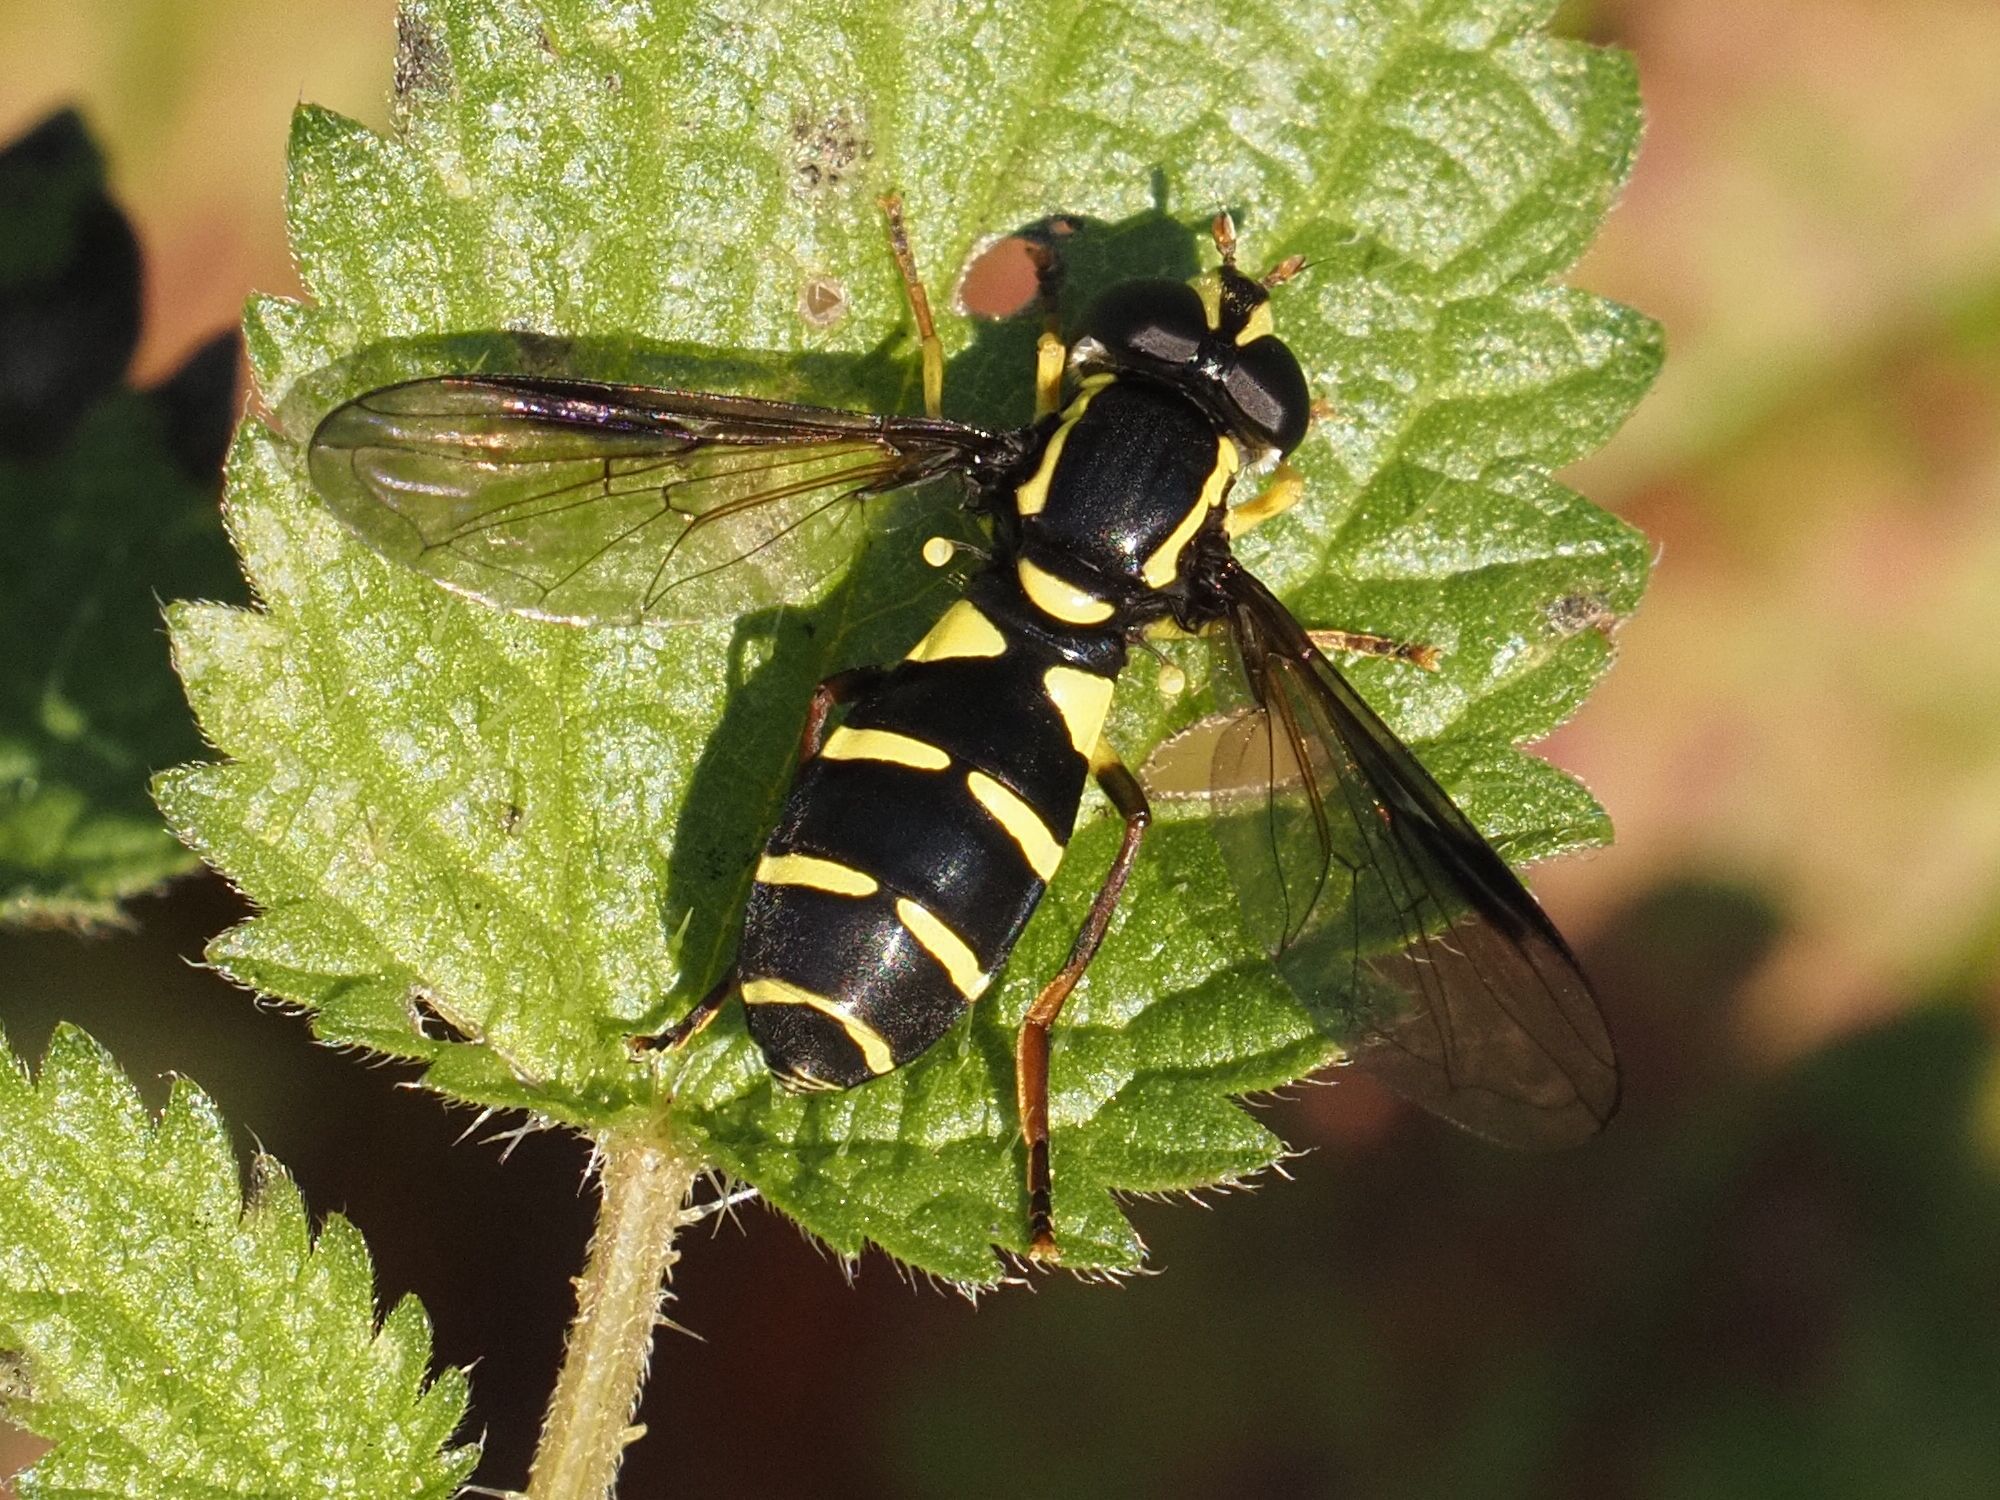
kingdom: Animalia
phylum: Arthropoda
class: Insecta
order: Diptera
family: Syrphidae
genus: Philhelius
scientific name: Philhelius pedissequum
